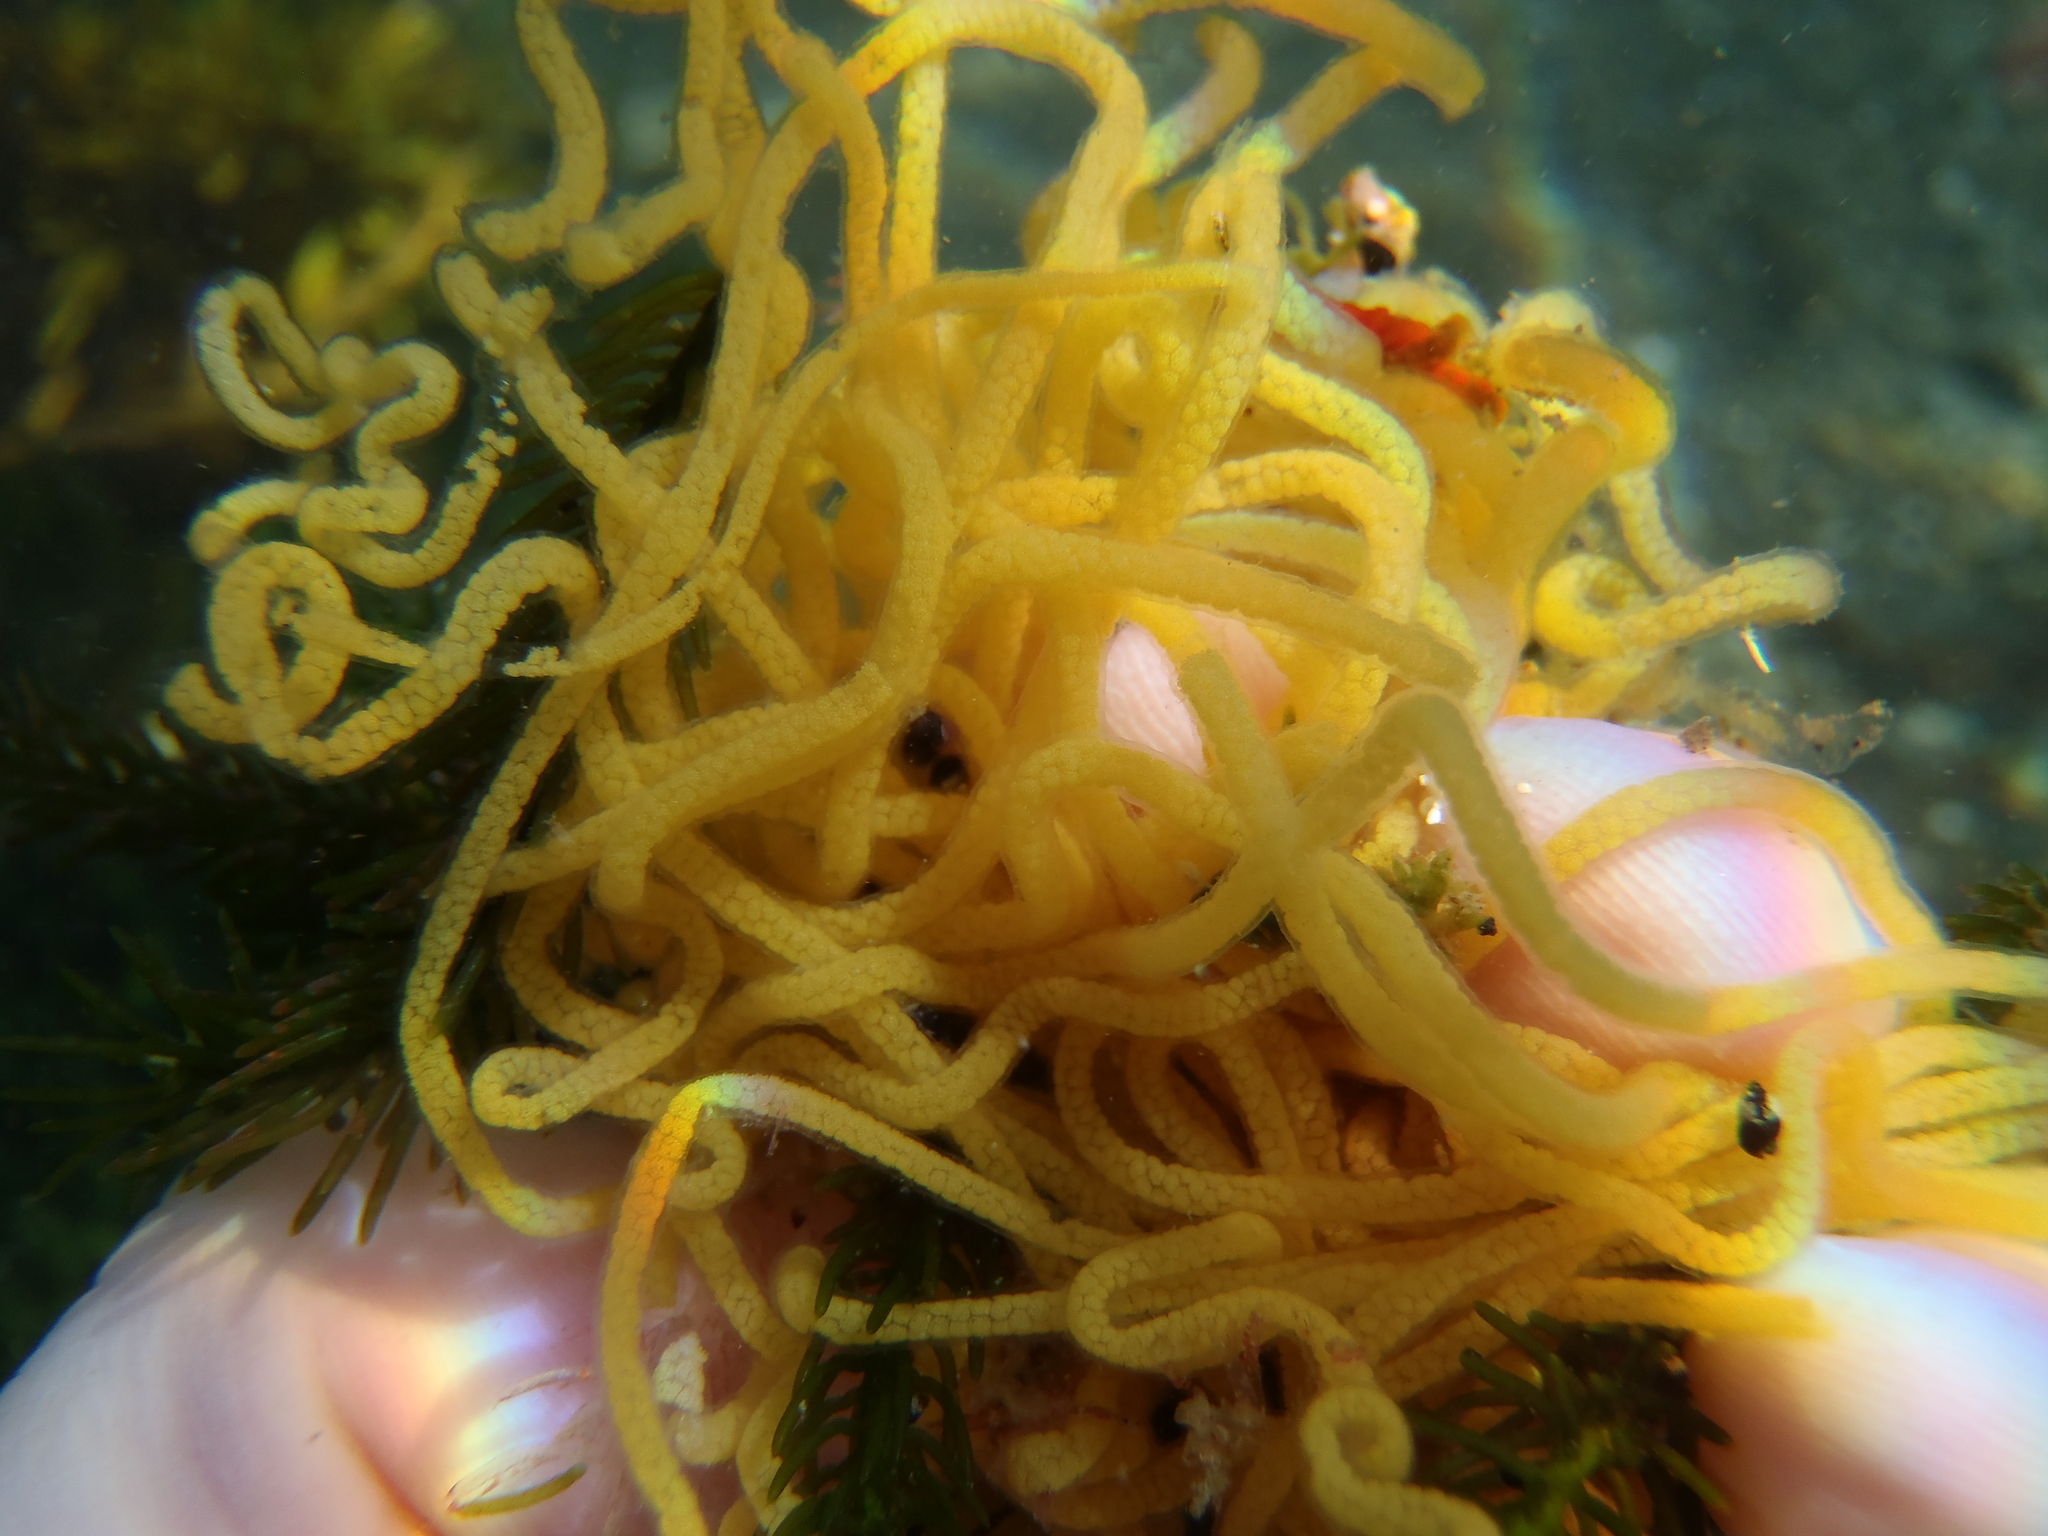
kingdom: Animalia
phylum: Mollusca
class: Gastropoda
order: Aplysiida
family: Aplysiidae
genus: Aplysia
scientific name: Aplysia
